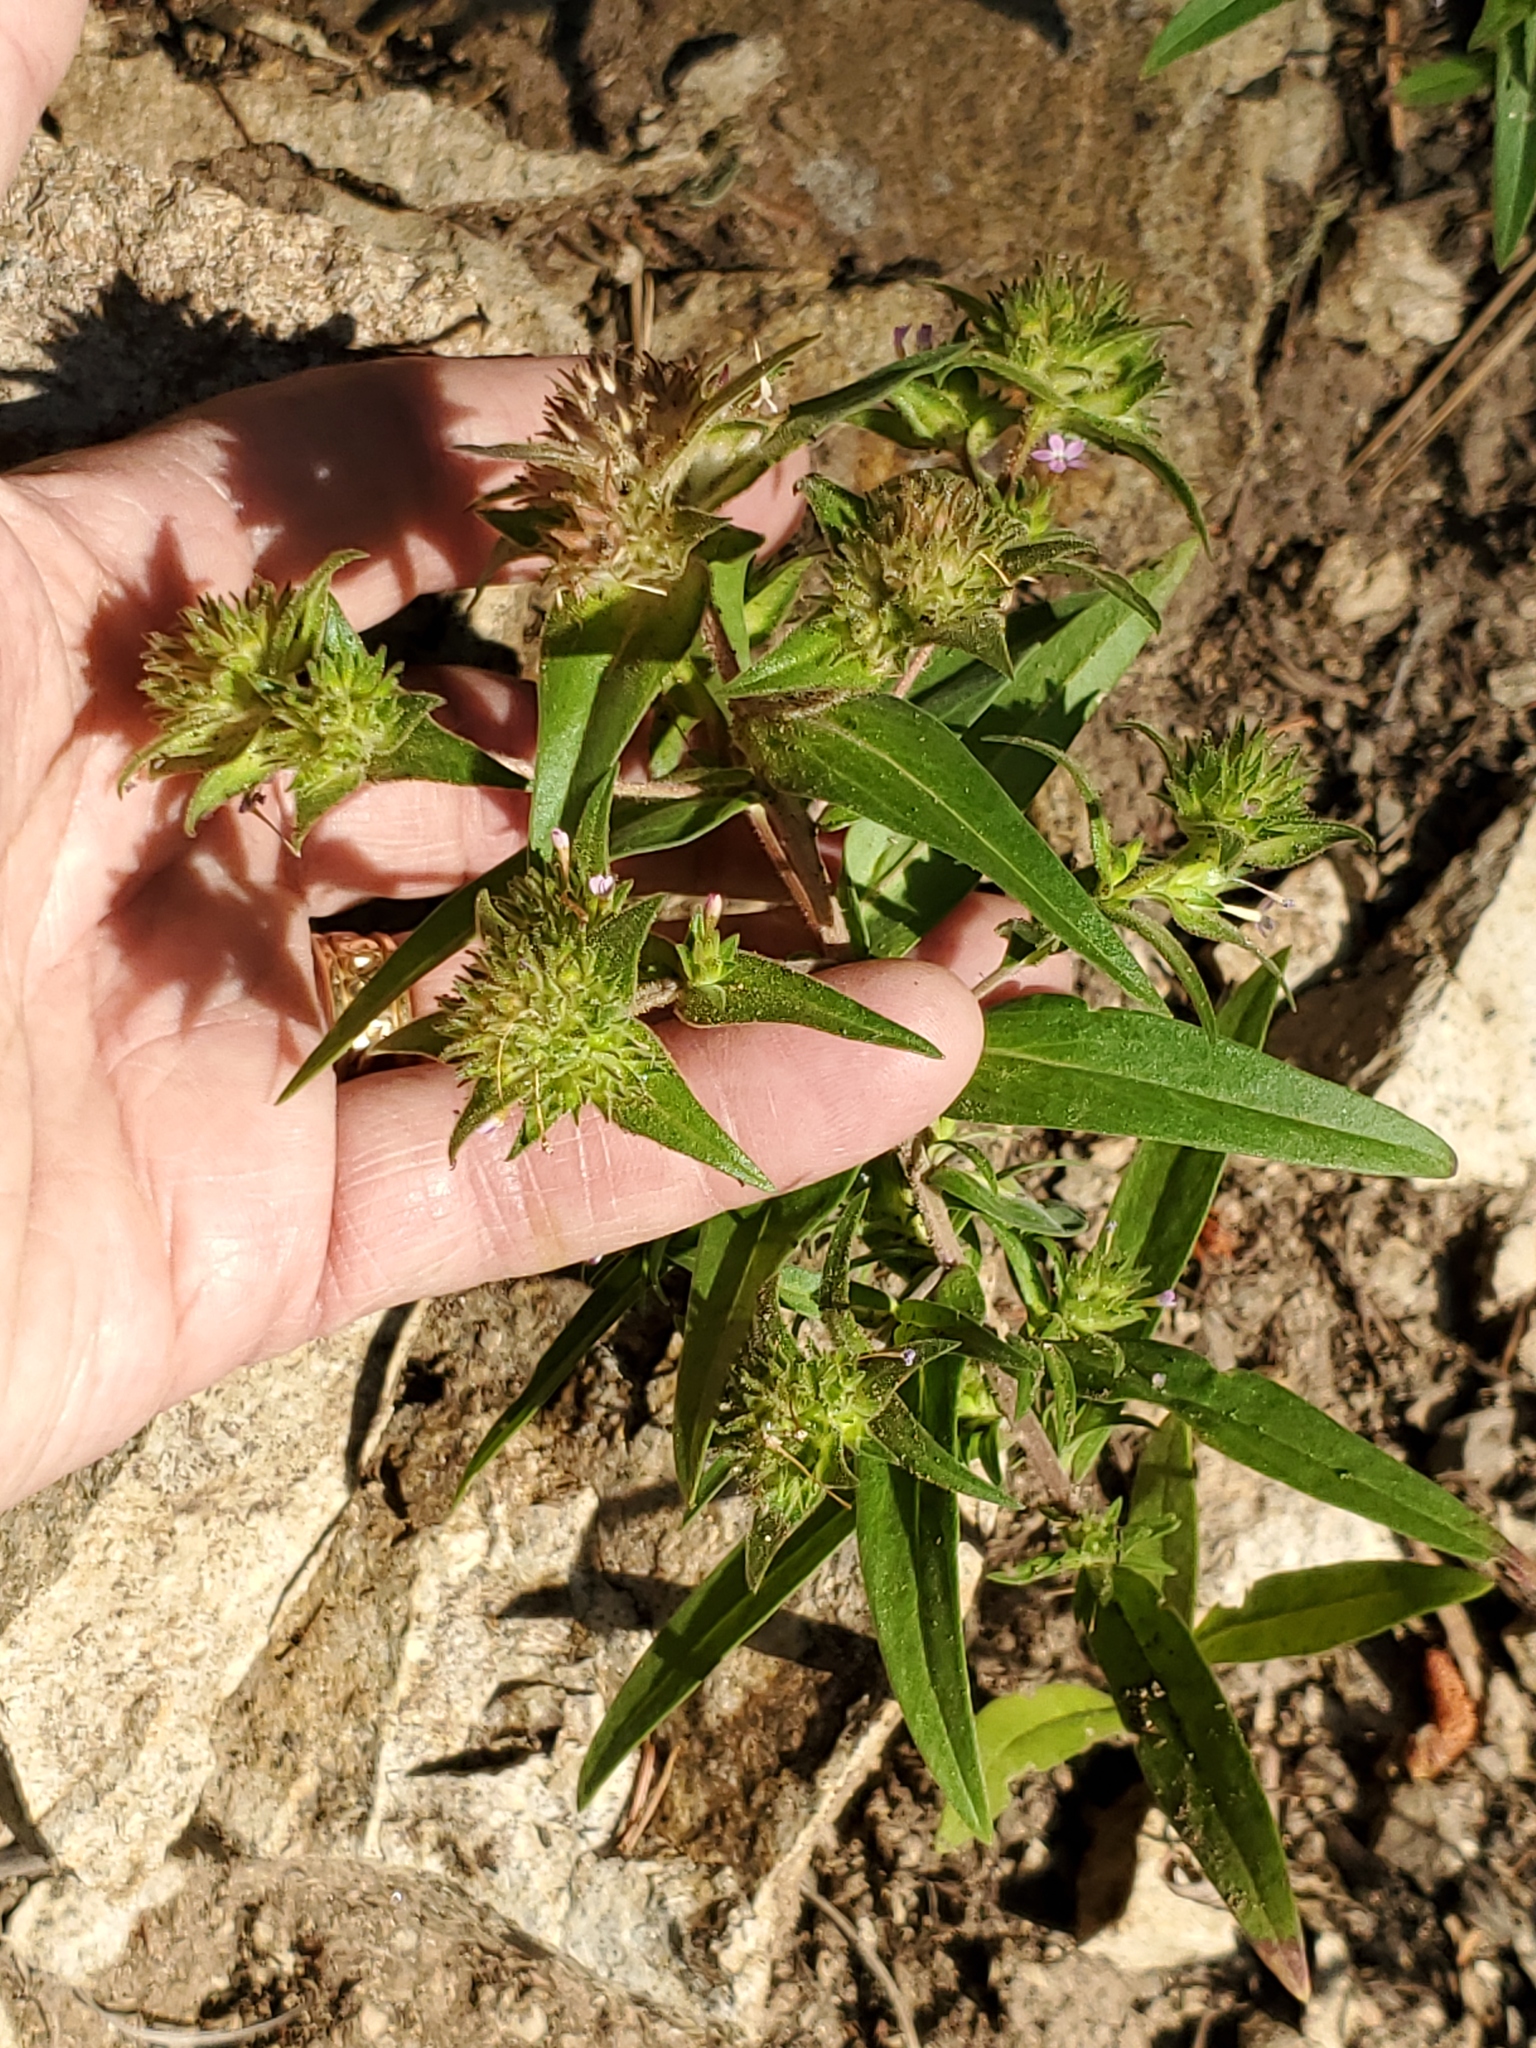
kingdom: Plantae
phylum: Tracheophyta
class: Magnoliopsida
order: Ericales
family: Polemoniaceae
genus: Collomia
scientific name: Collomia linearis
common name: Tiny trumpet
